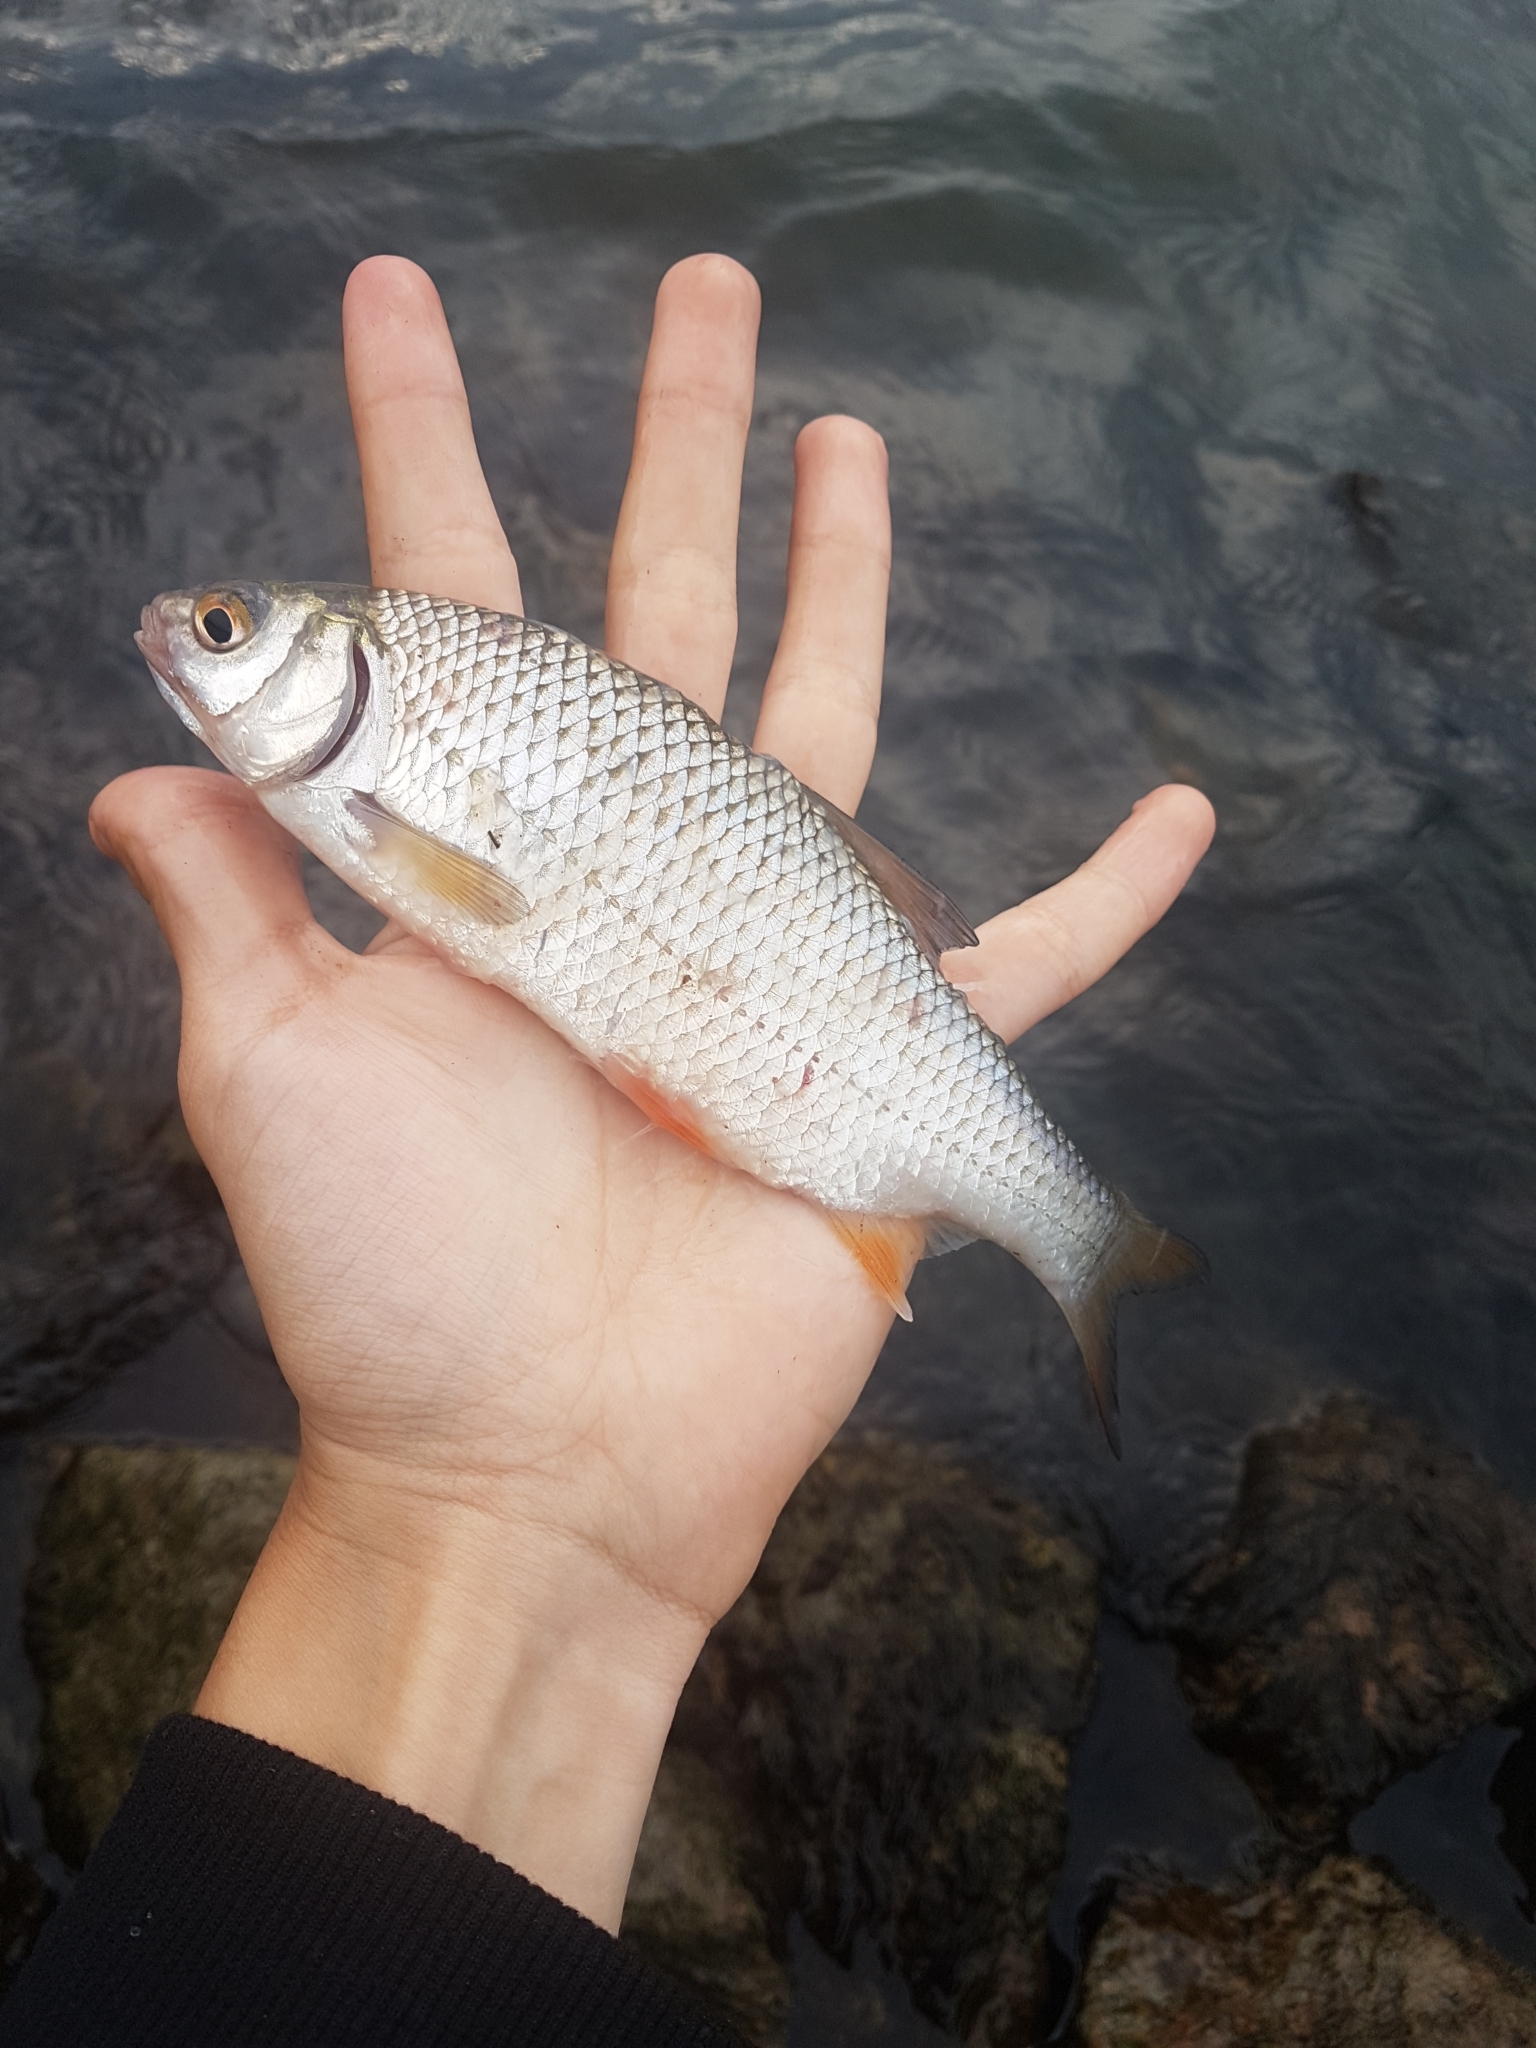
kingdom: Animalia
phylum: Chordata
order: Cypriniformes
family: Cyprinidae
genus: Rutilus
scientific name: Rutilus rutilus
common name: Roach
